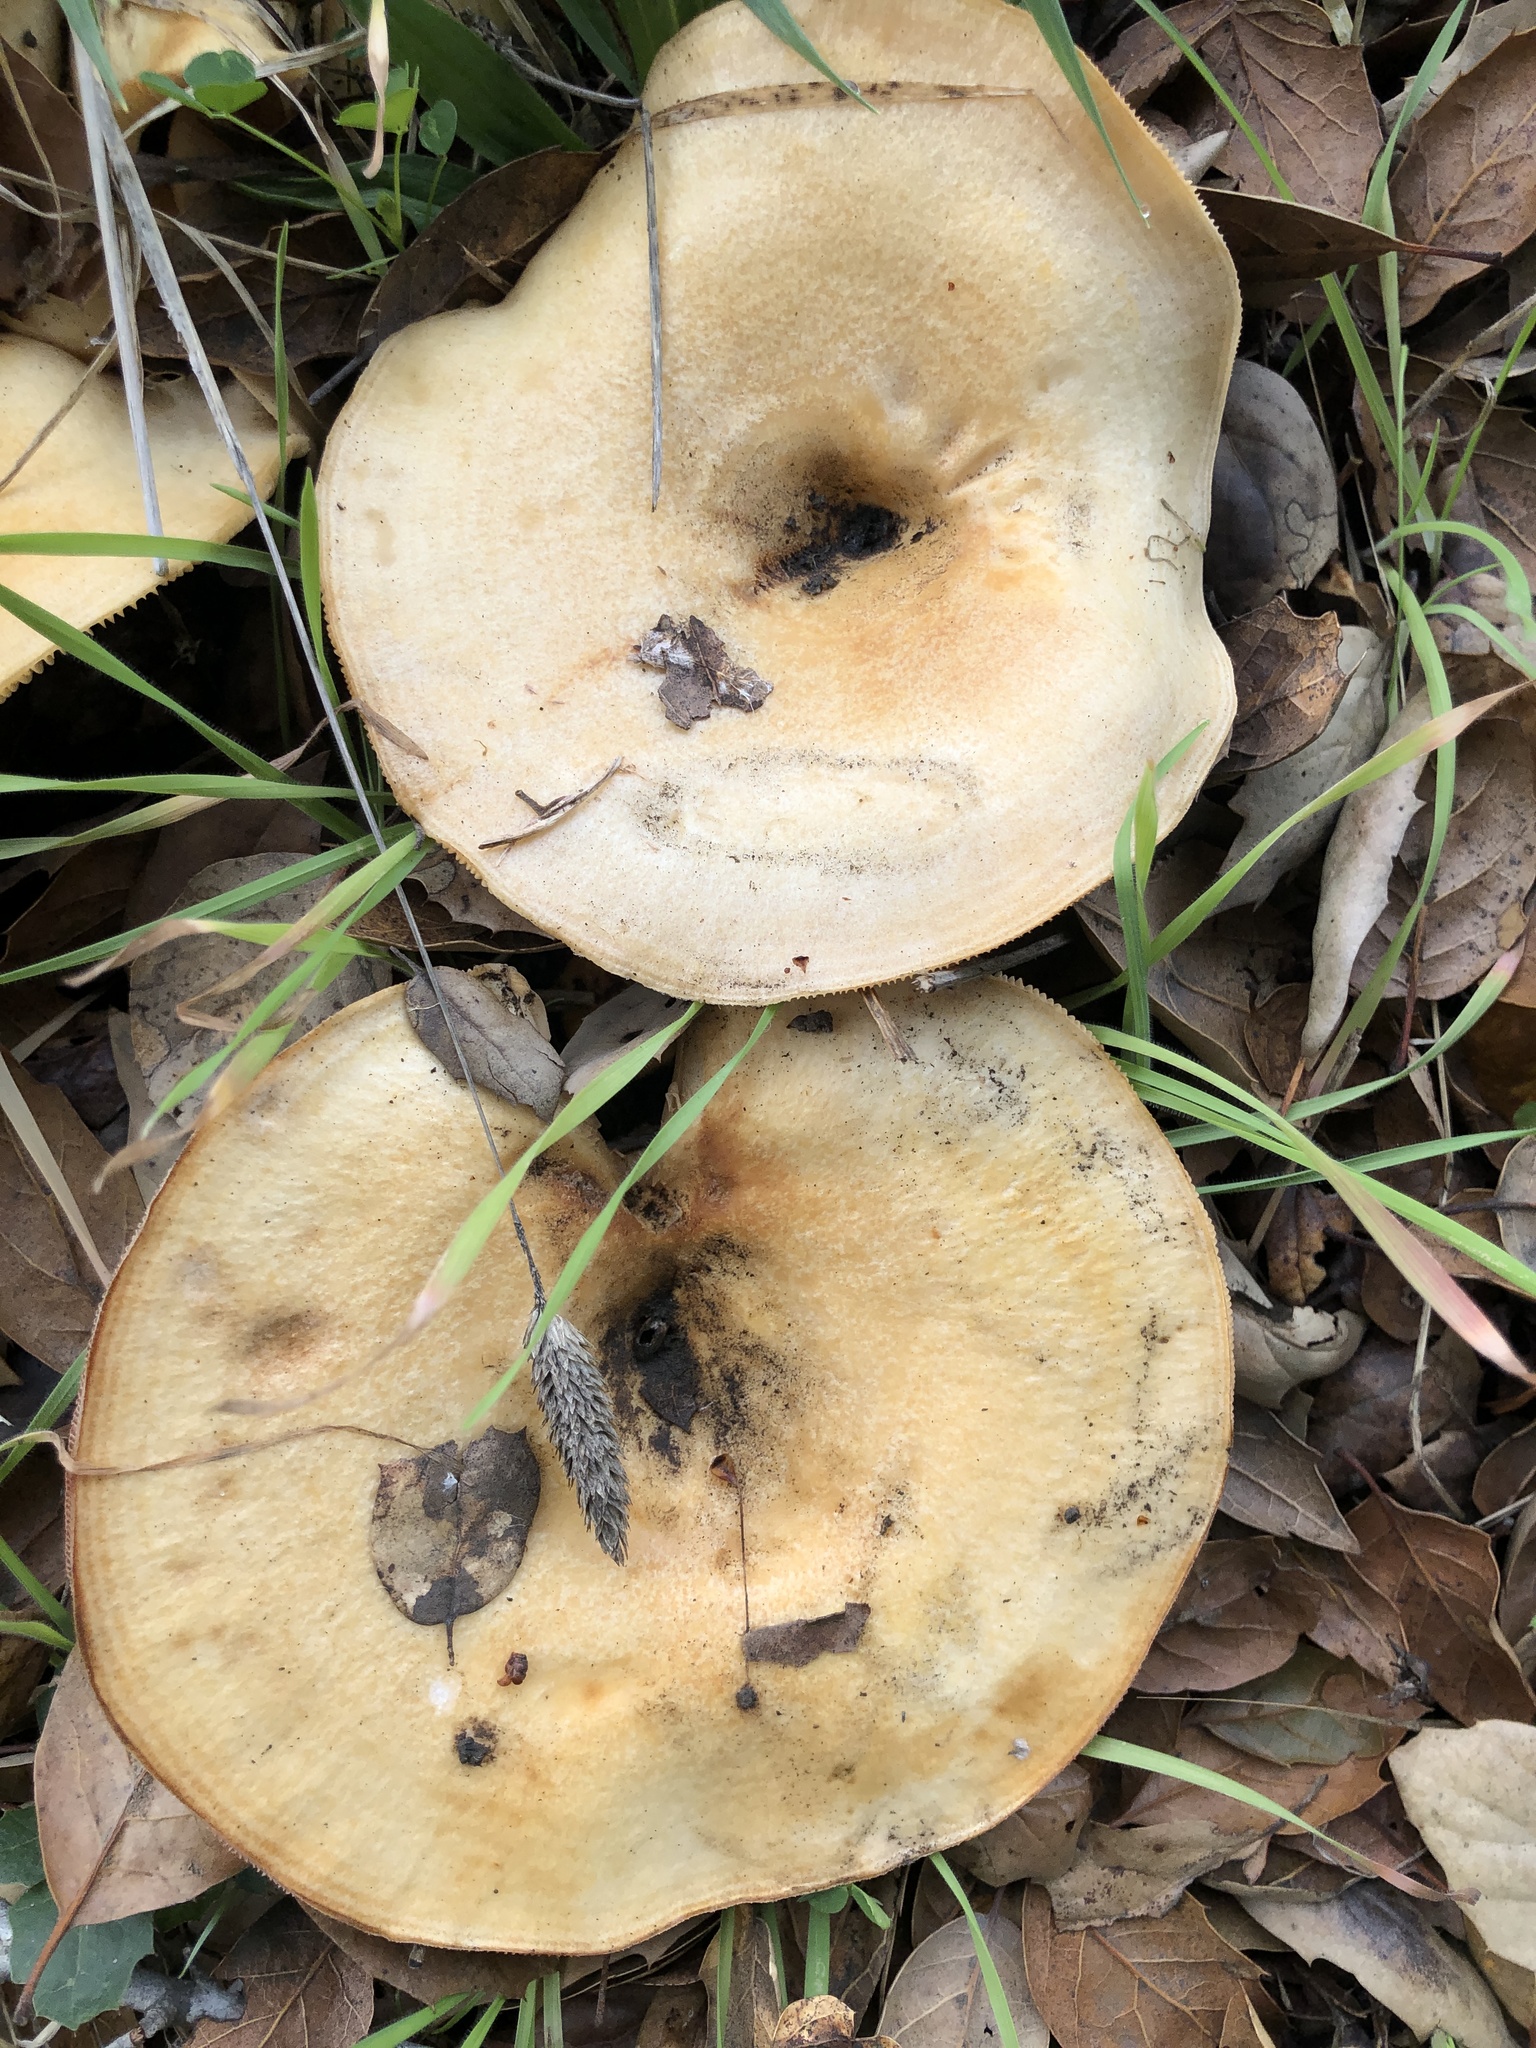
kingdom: Fungi
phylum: Basidiomycota
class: Agaricomycetes
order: Russulales
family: Russulaceae
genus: Lactarius
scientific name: Lactarius alnicola
